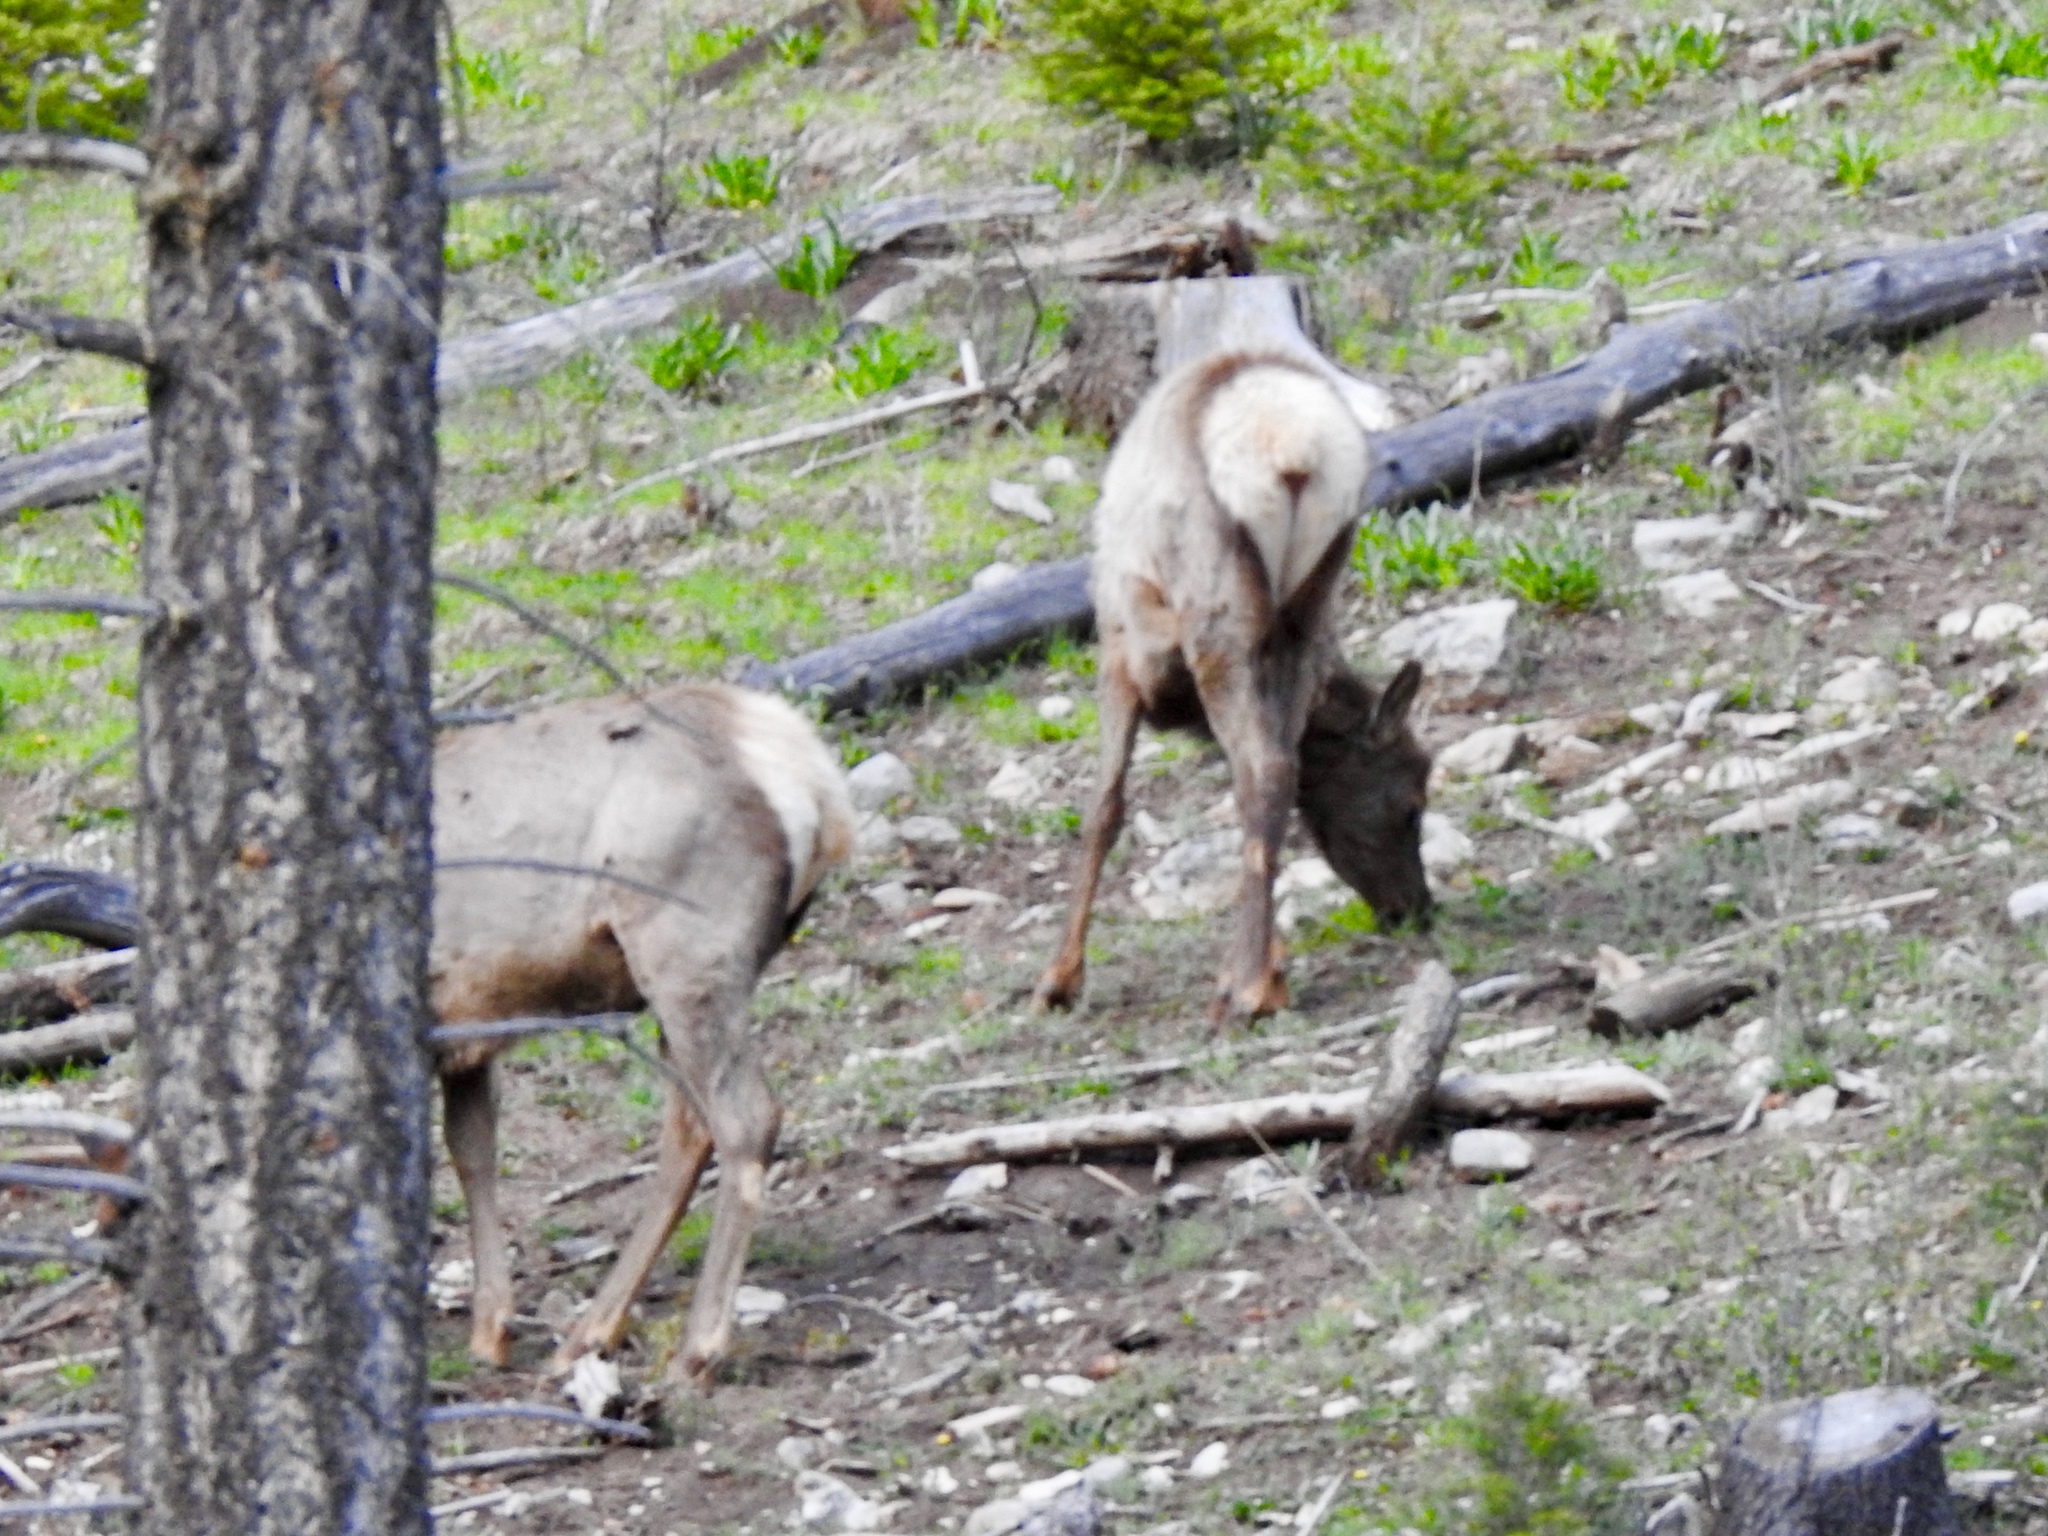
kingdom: Animalia
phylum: Chordata
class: Mammalia
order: Artiodactyla
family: Cervidae
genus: Cervus
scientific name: Cervus elaphus
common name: Red deer
